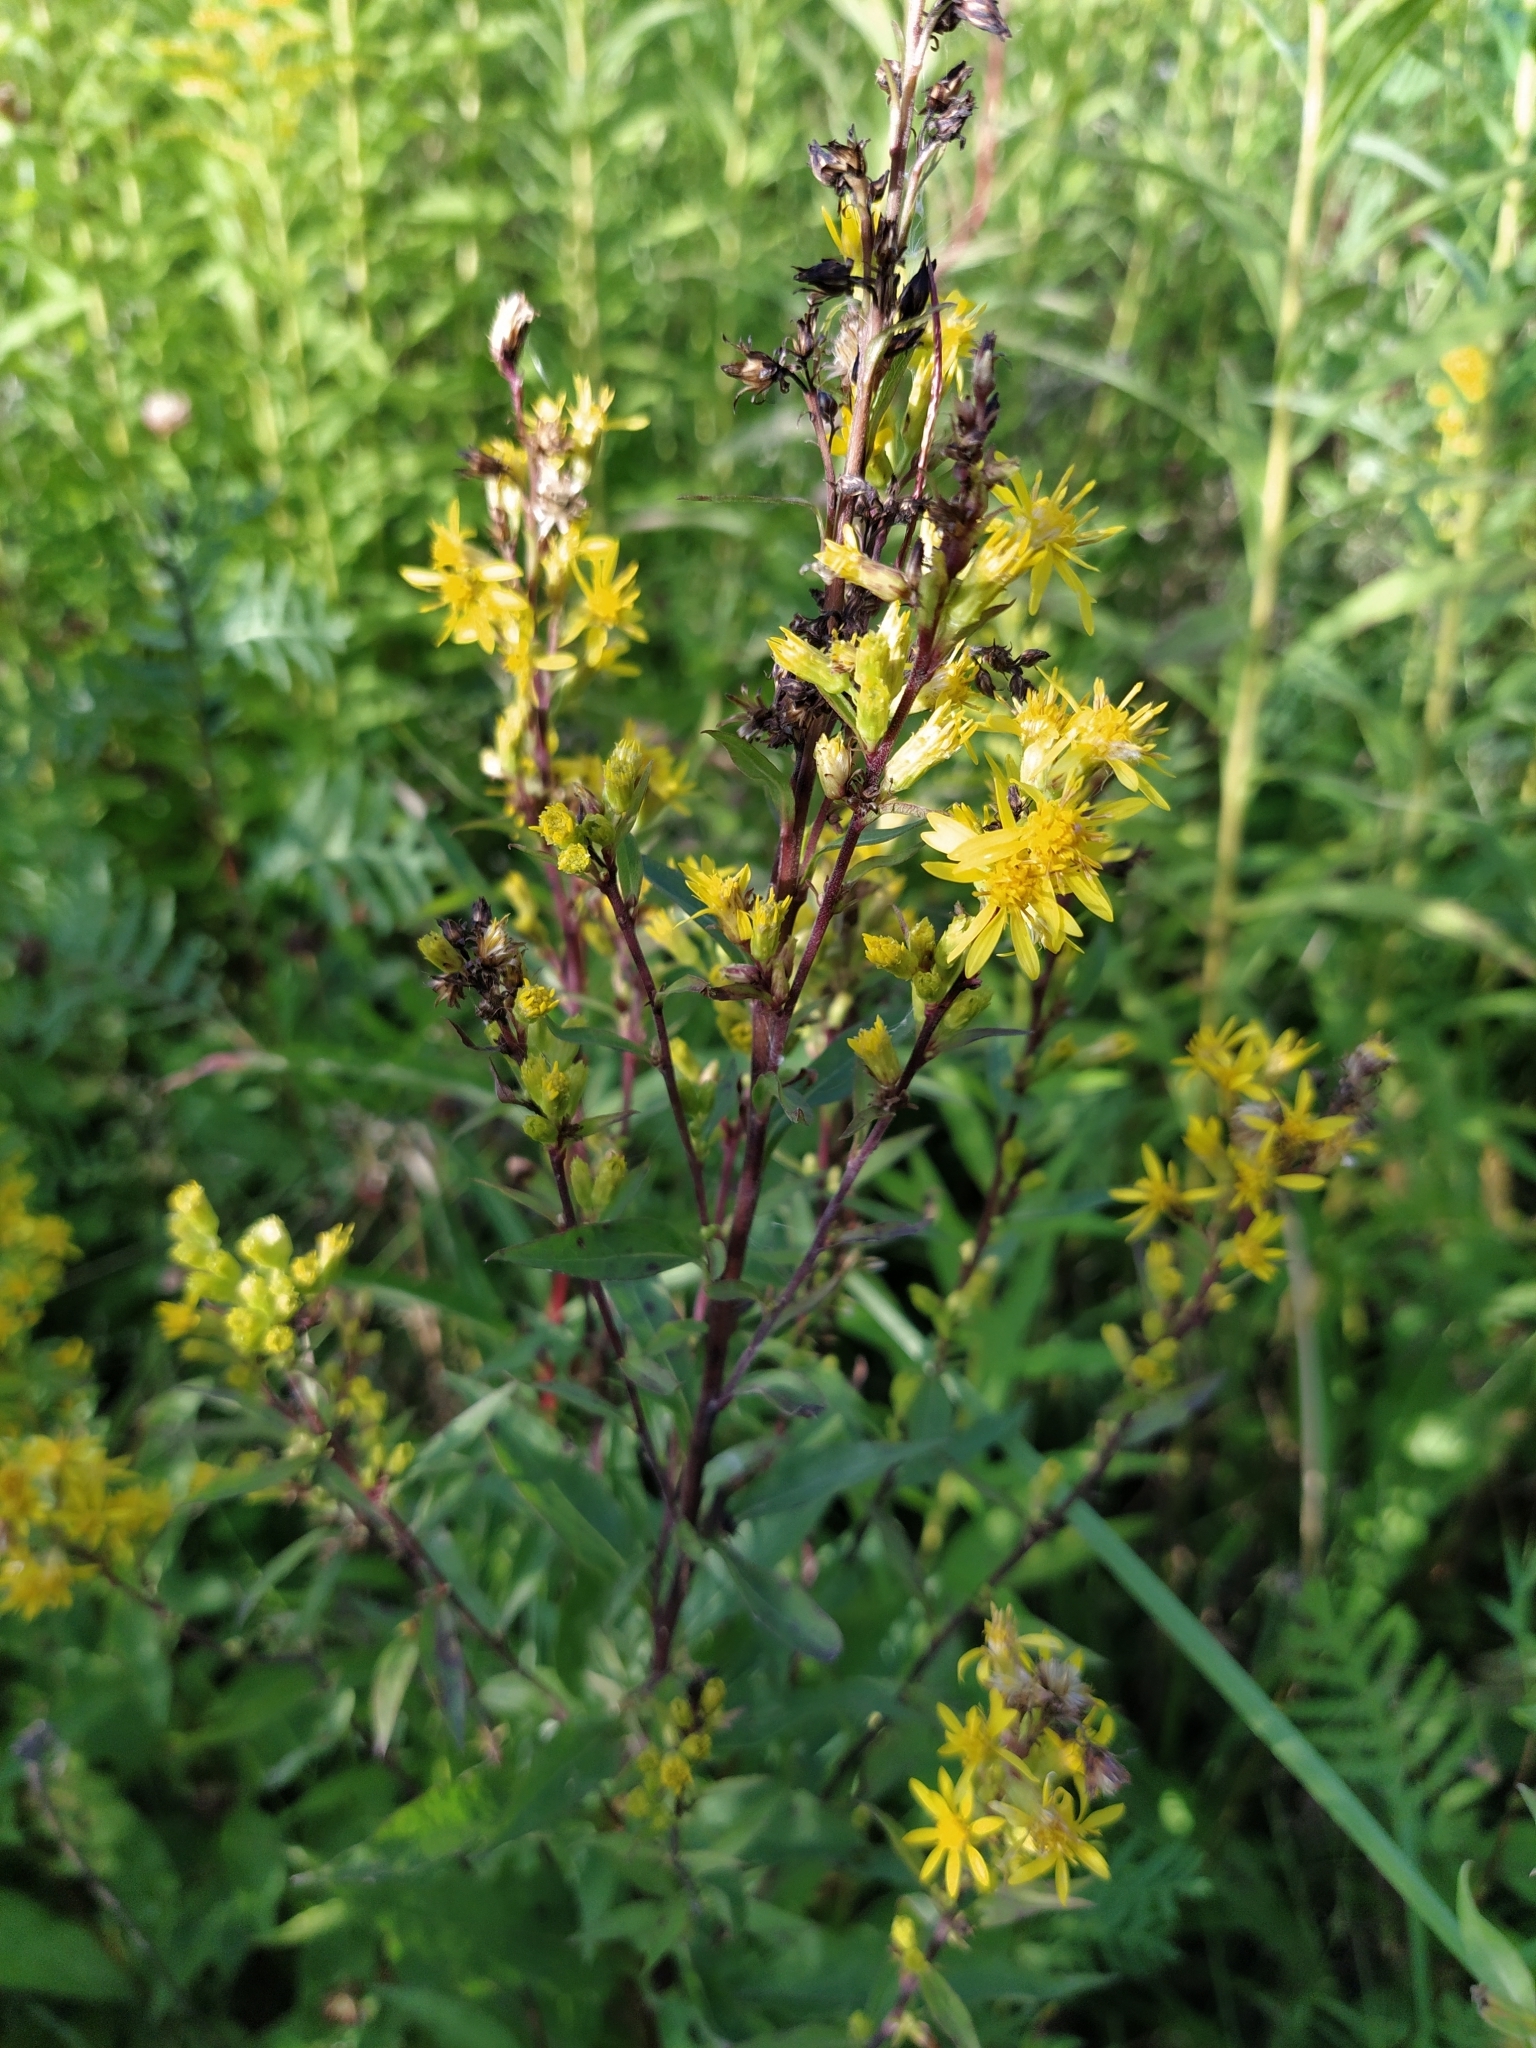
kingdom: Plantae
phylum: Tracheophyta
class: Magnoliopsida
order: Asterales
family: Asteraceae
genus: Solidago
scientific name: Solidago virgaurea
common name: Goldenrod
